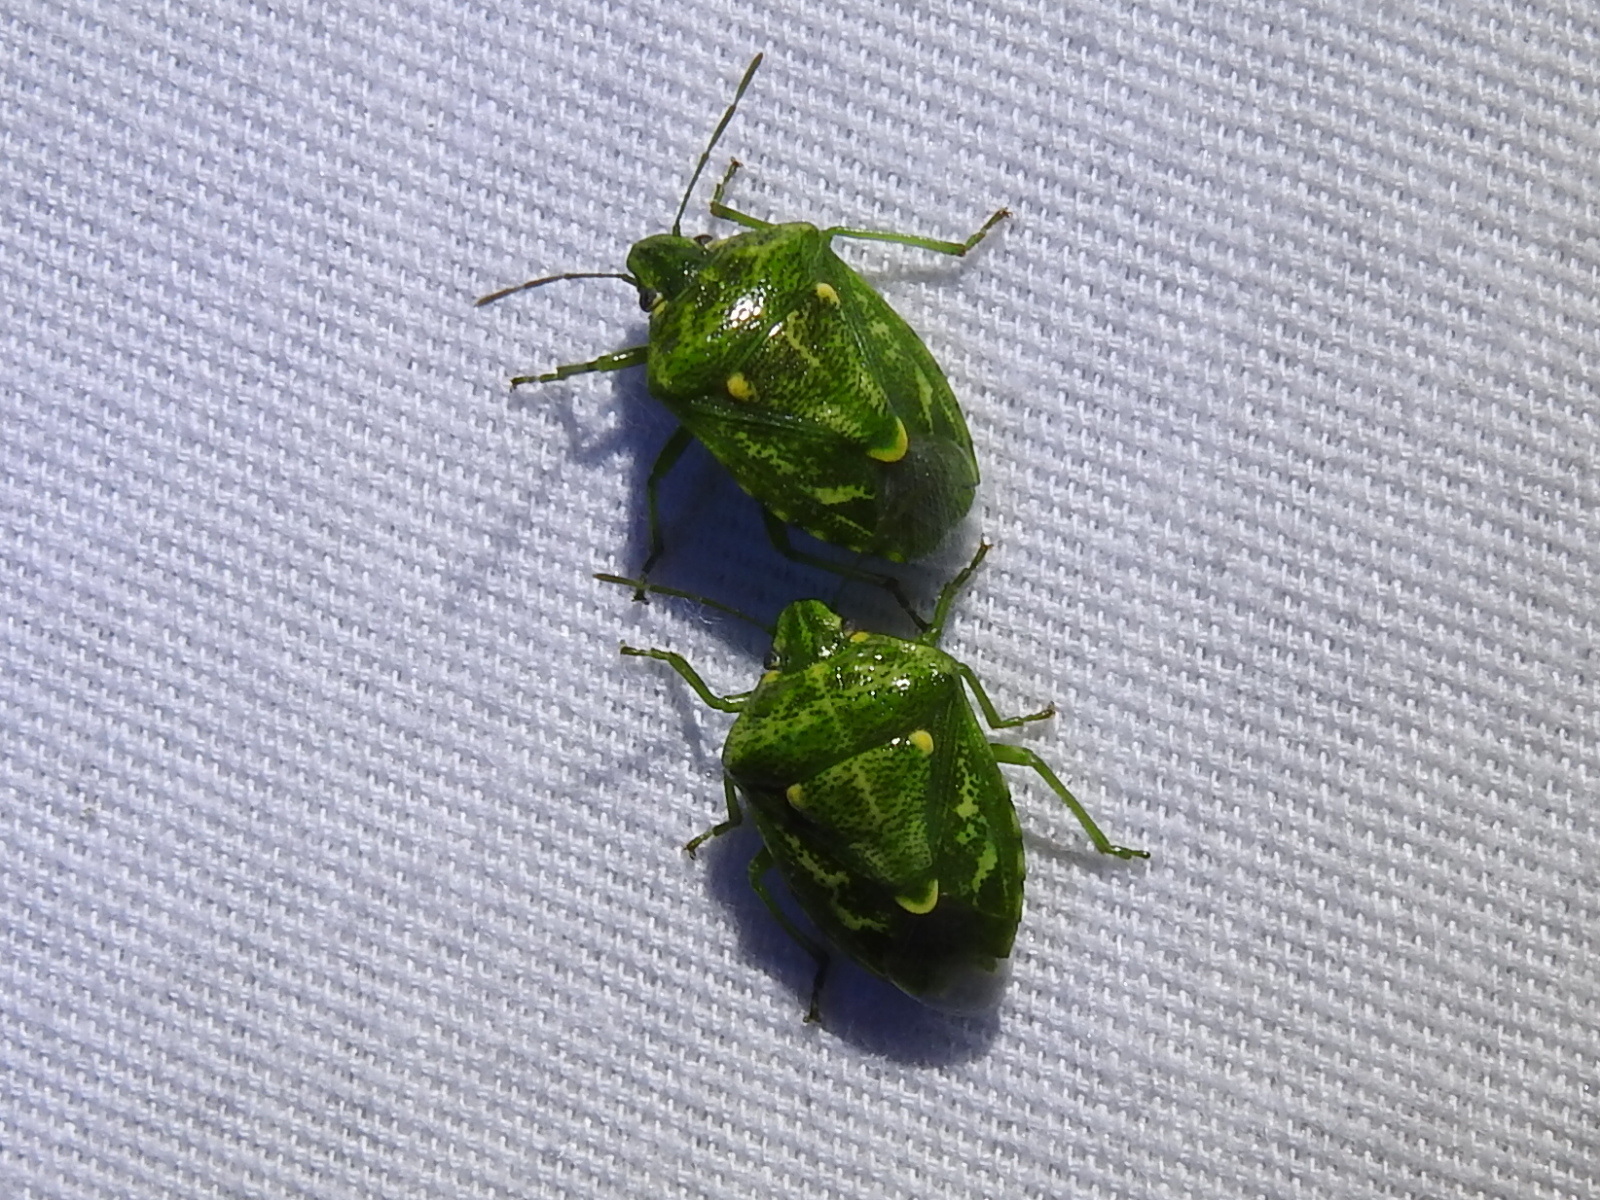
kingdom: Animalia
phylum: Arthropoda
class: Insecta
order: Hemiptera
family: Pentatomidae
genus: Banasa
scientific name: Banasa euchlora
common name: Cedar berry bug
